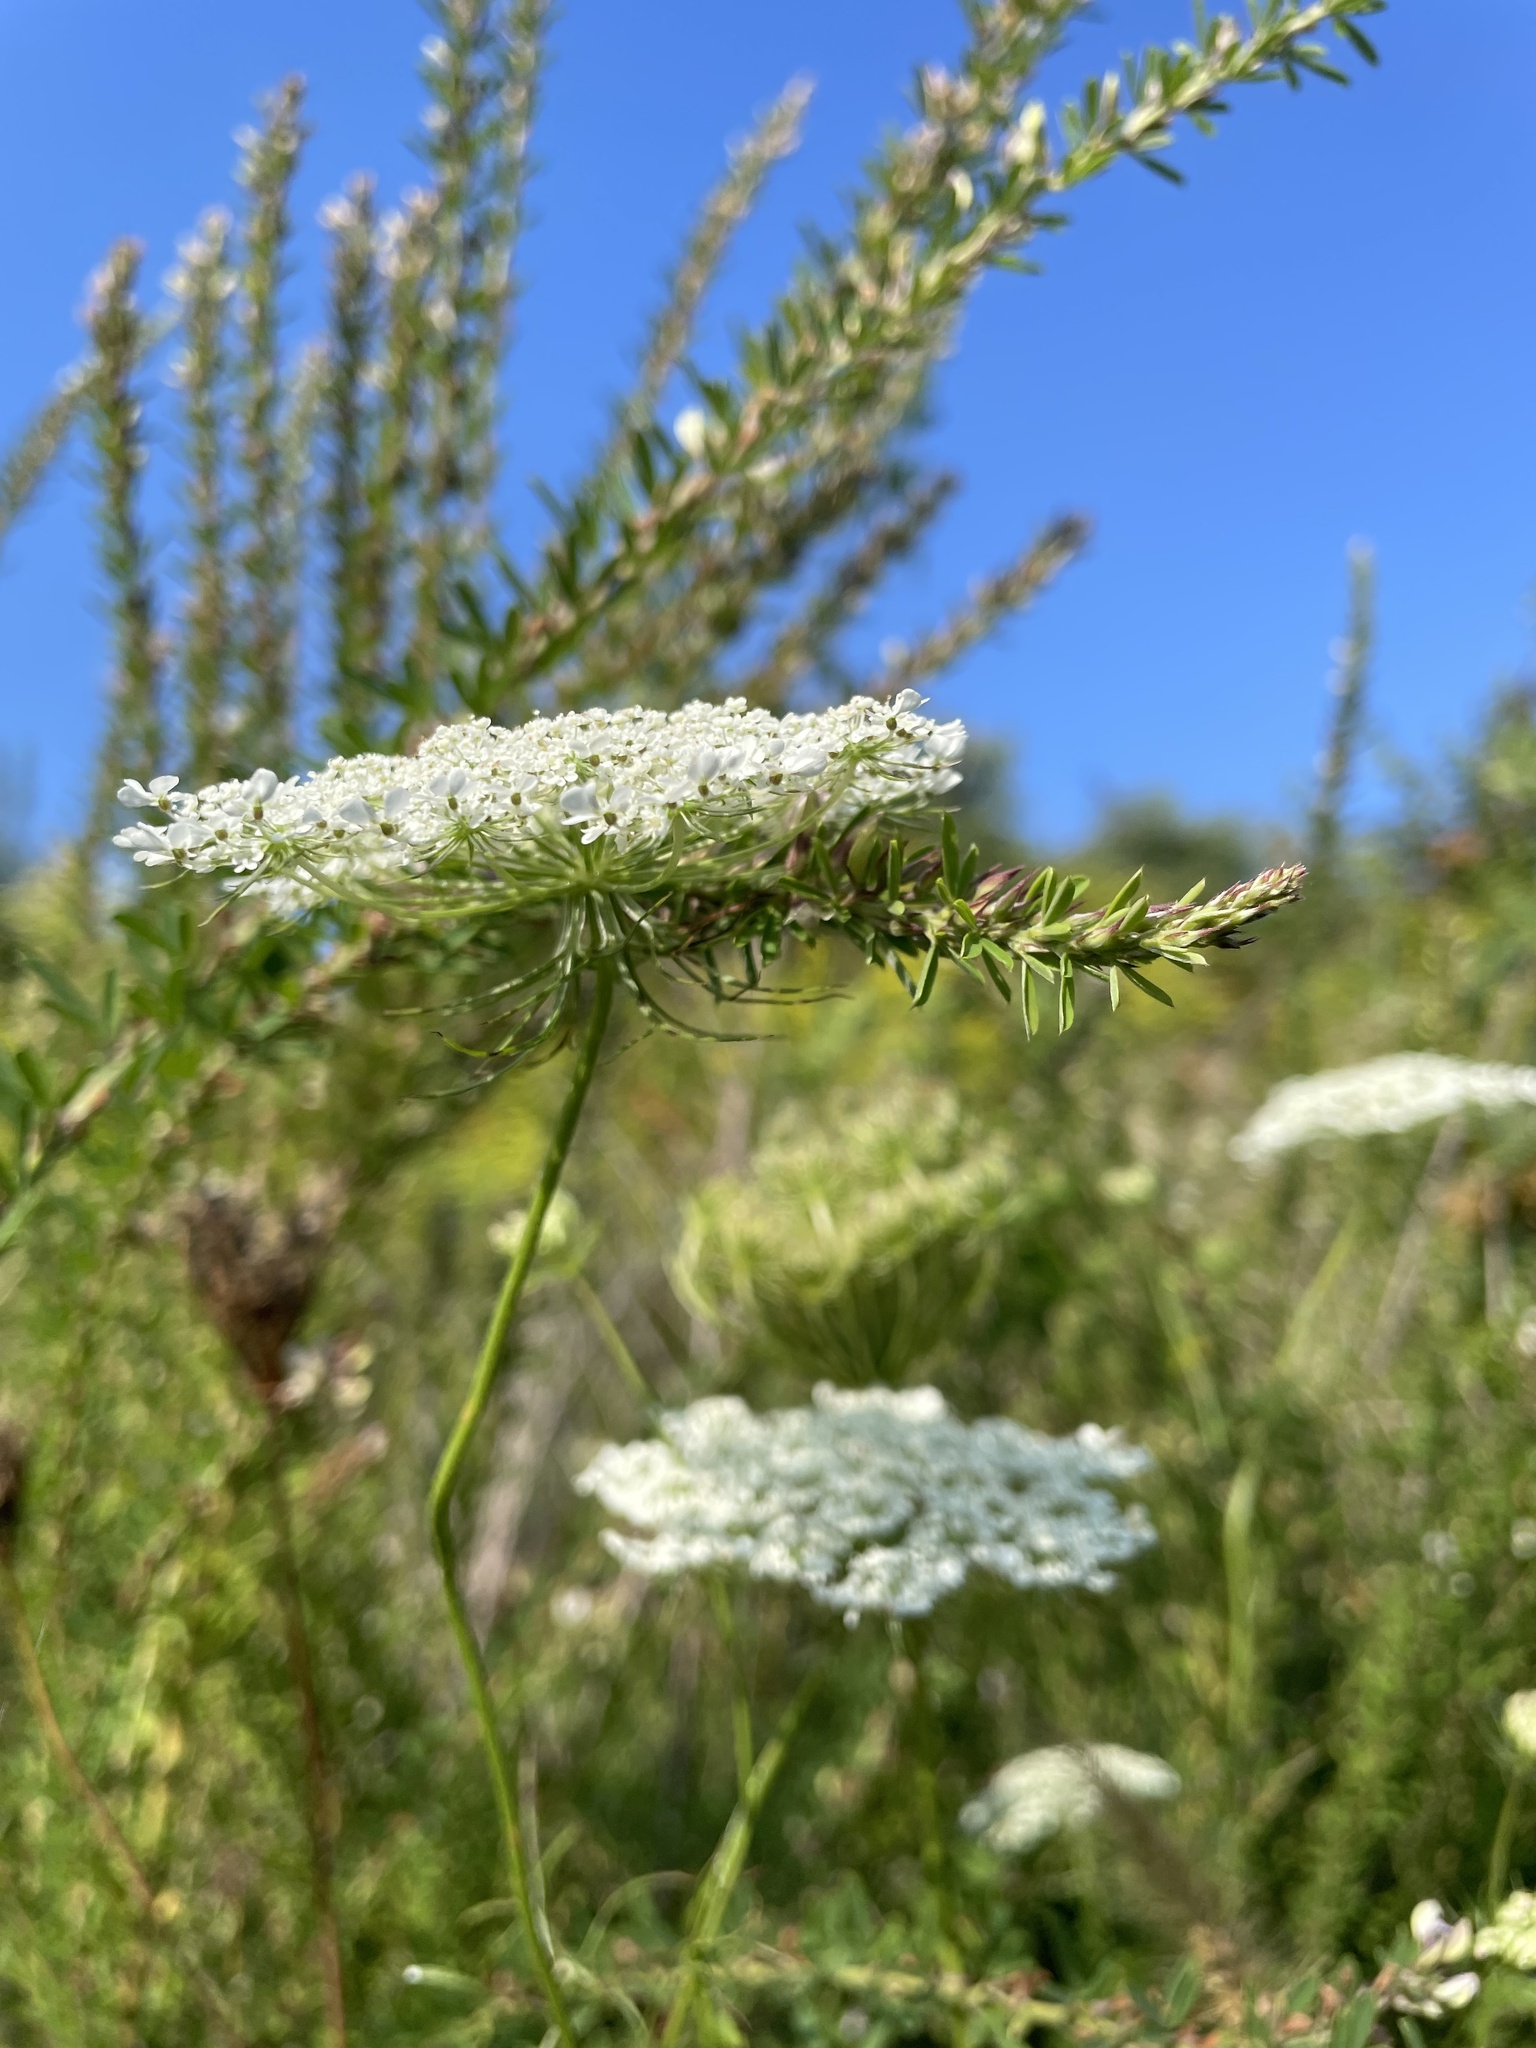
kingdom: Plantae
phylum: Tracheophyta
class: Magnoliopsida
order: Apiales
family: Apiaceae
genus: Daucus
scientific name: Daucus carota
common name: Wild carrot
